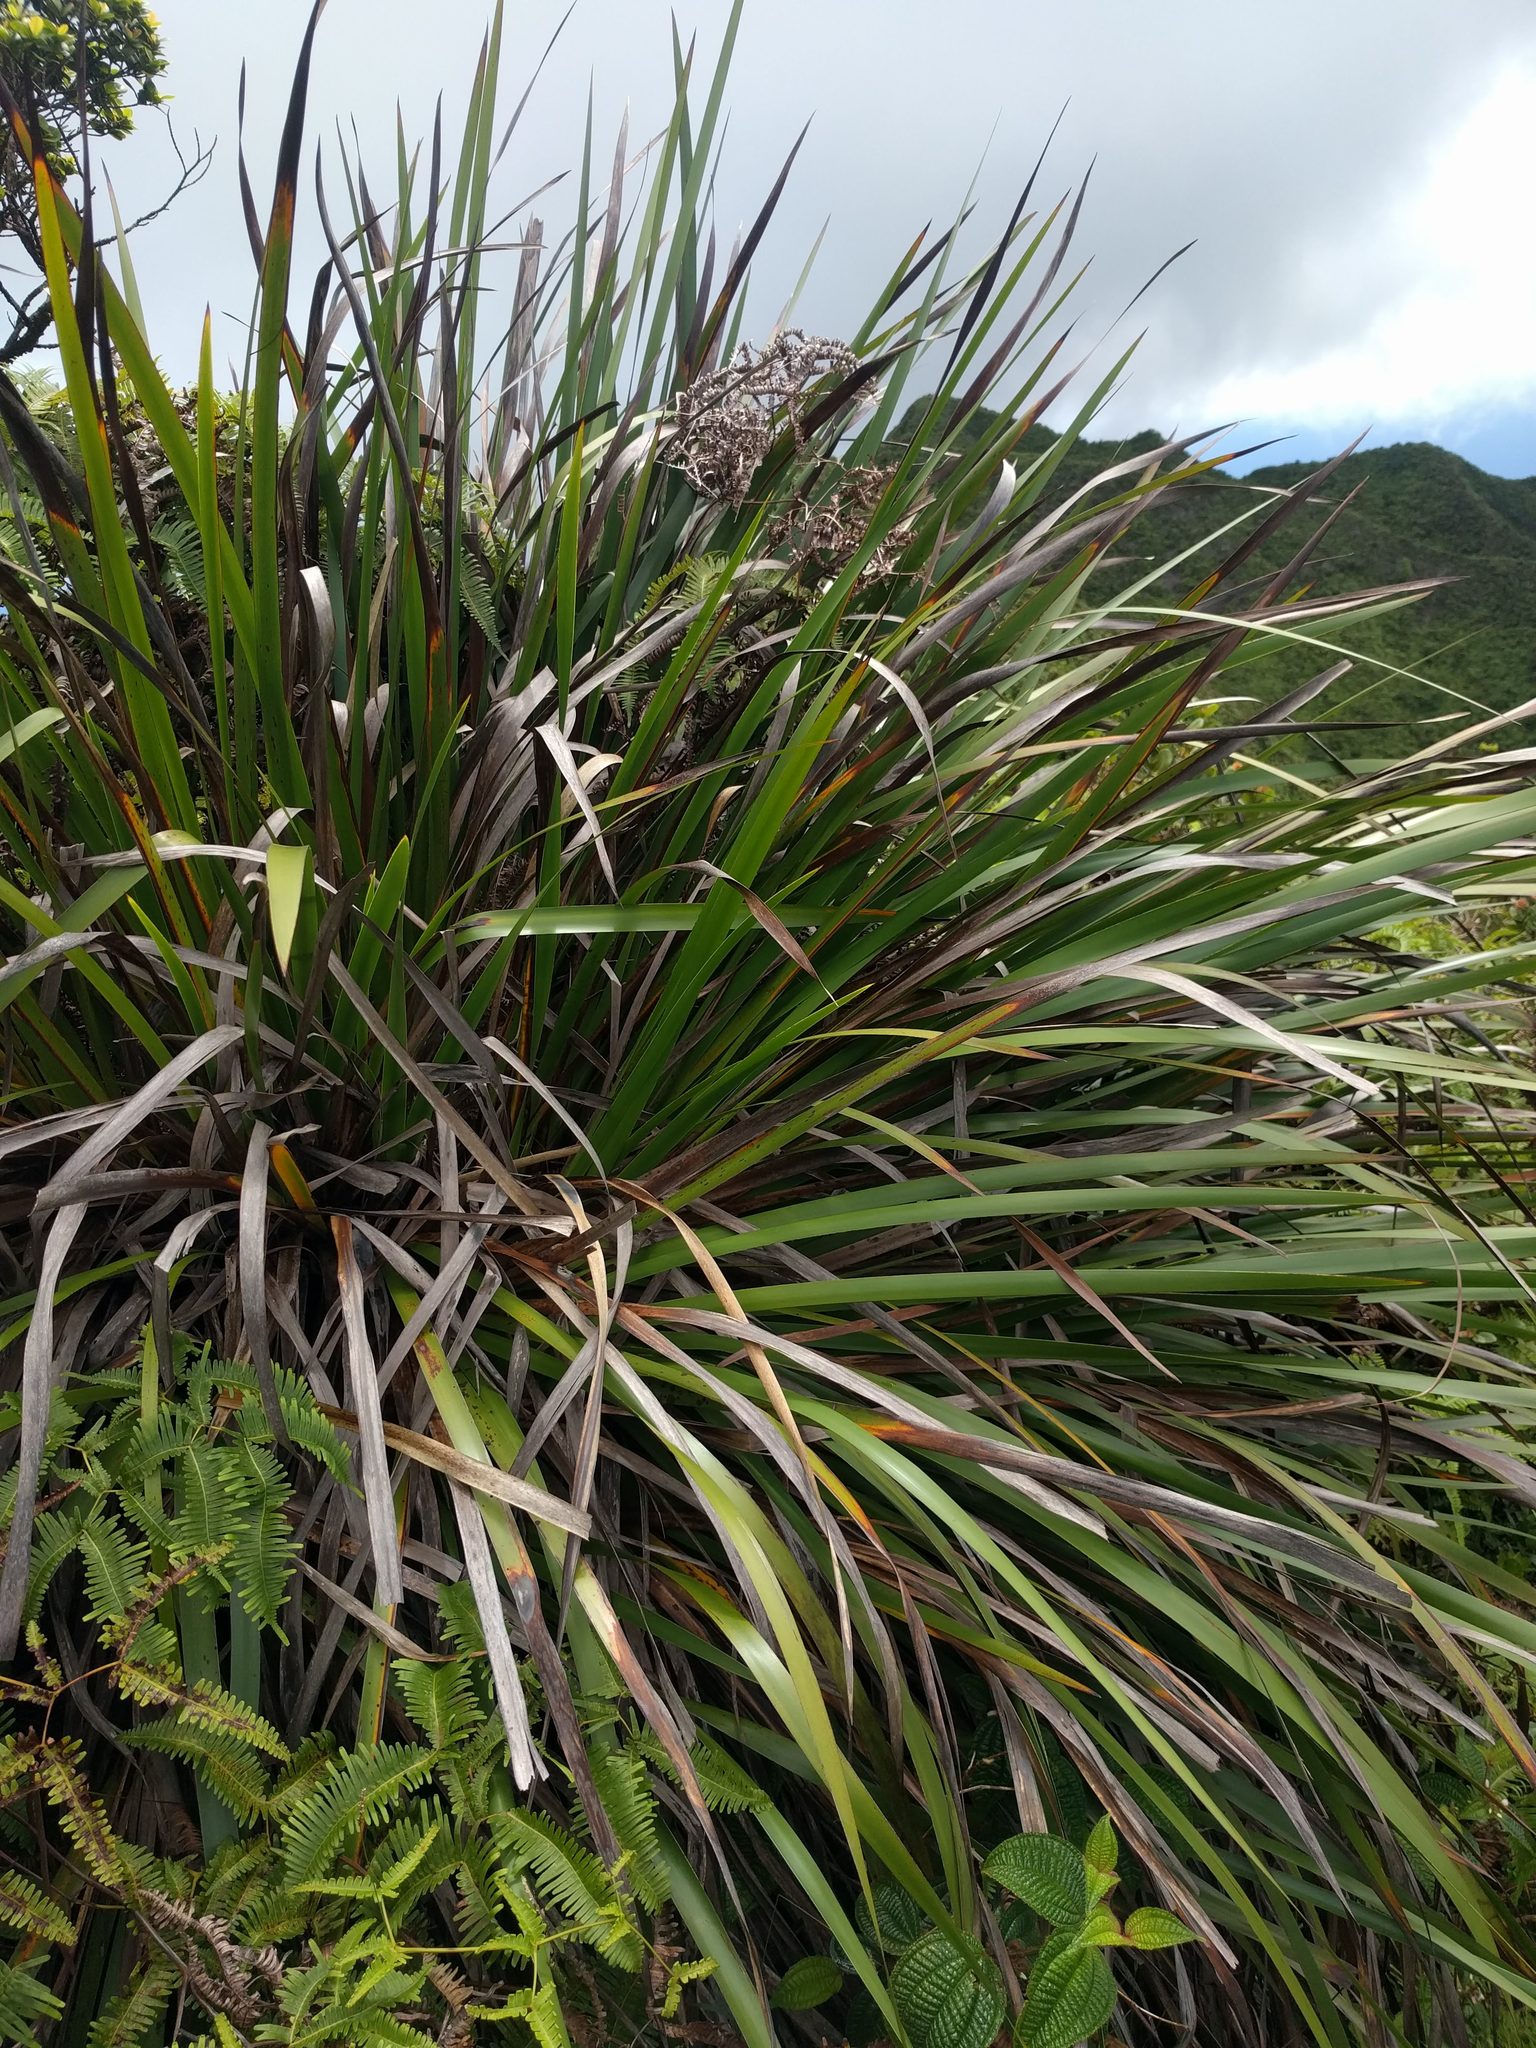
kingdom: Plantae
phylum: Tracheophyta
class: Liliopsida
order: Poales
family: Cyperaceae
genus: Machaerina
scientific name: Machaerina angustifolia
